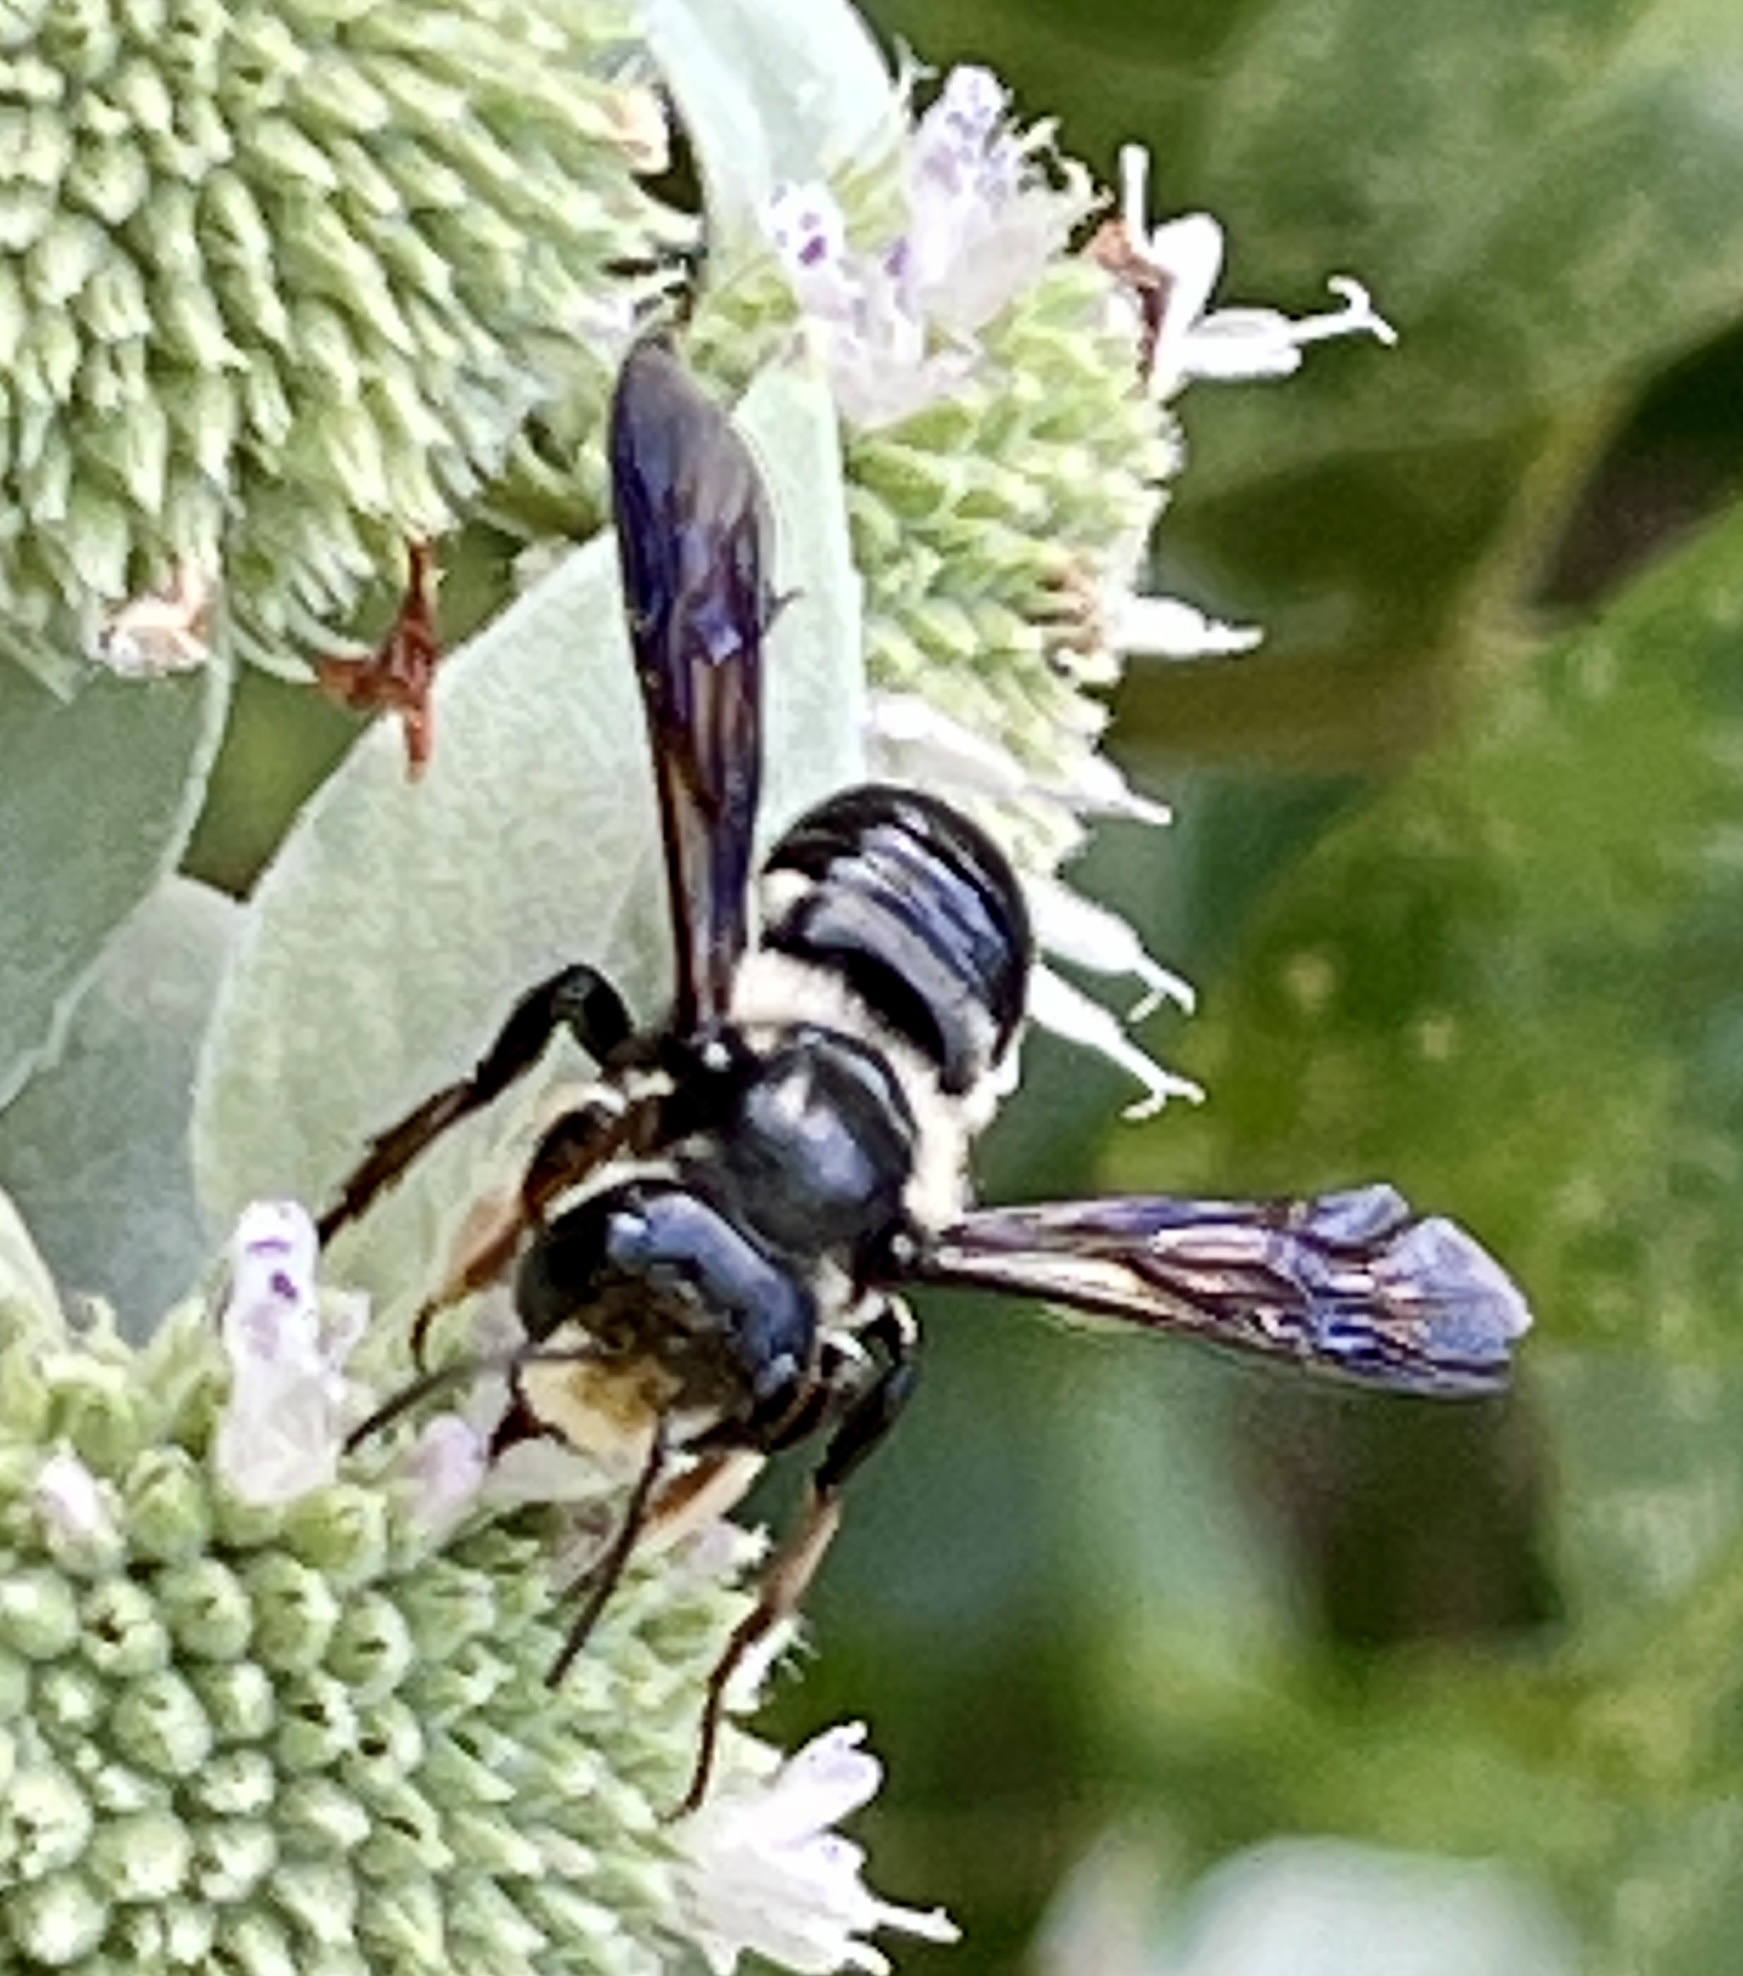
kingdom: Animalia
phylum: Arthropoda
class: Insecta
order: Hymenoptera
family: Megachilidae
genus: Megachile
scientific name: Megachile xylocopoides
